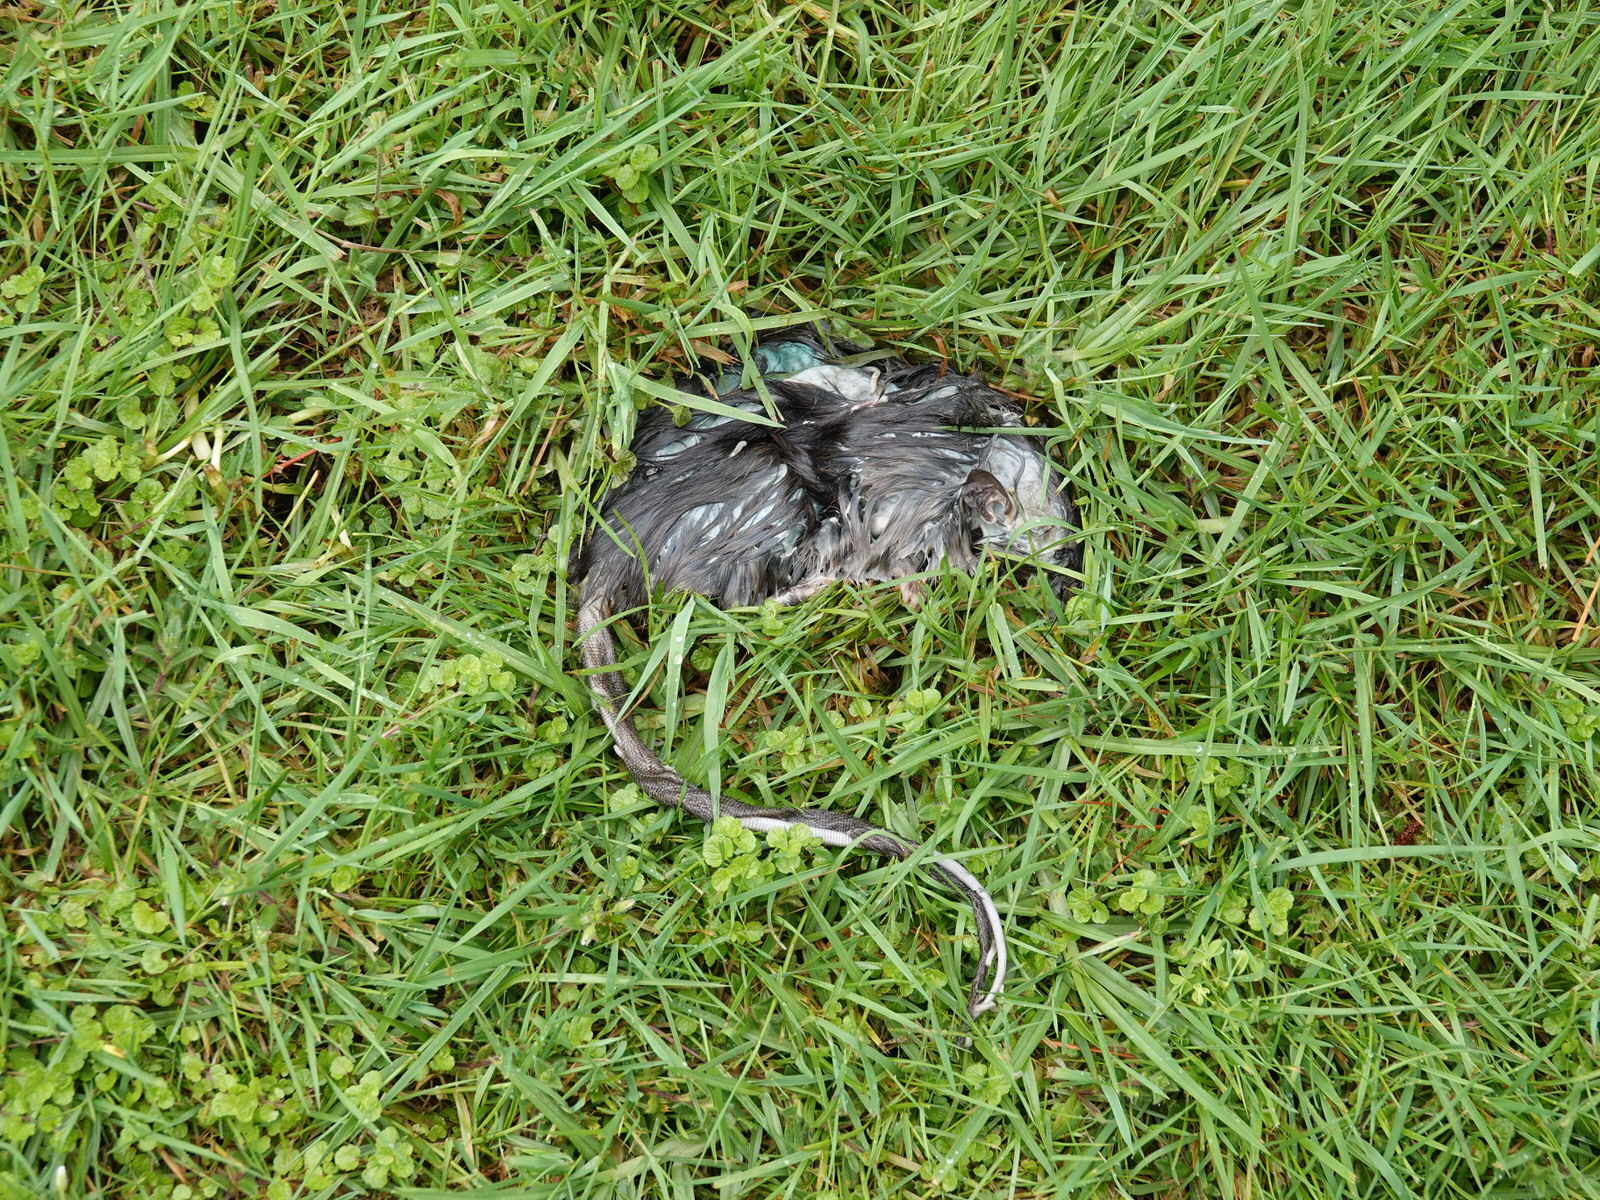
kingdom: Animalia
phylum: Chordata
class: Mammalia
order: Rodentia
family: Muridae
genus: Rattus
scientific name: Rattus rattus
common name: Black rat
